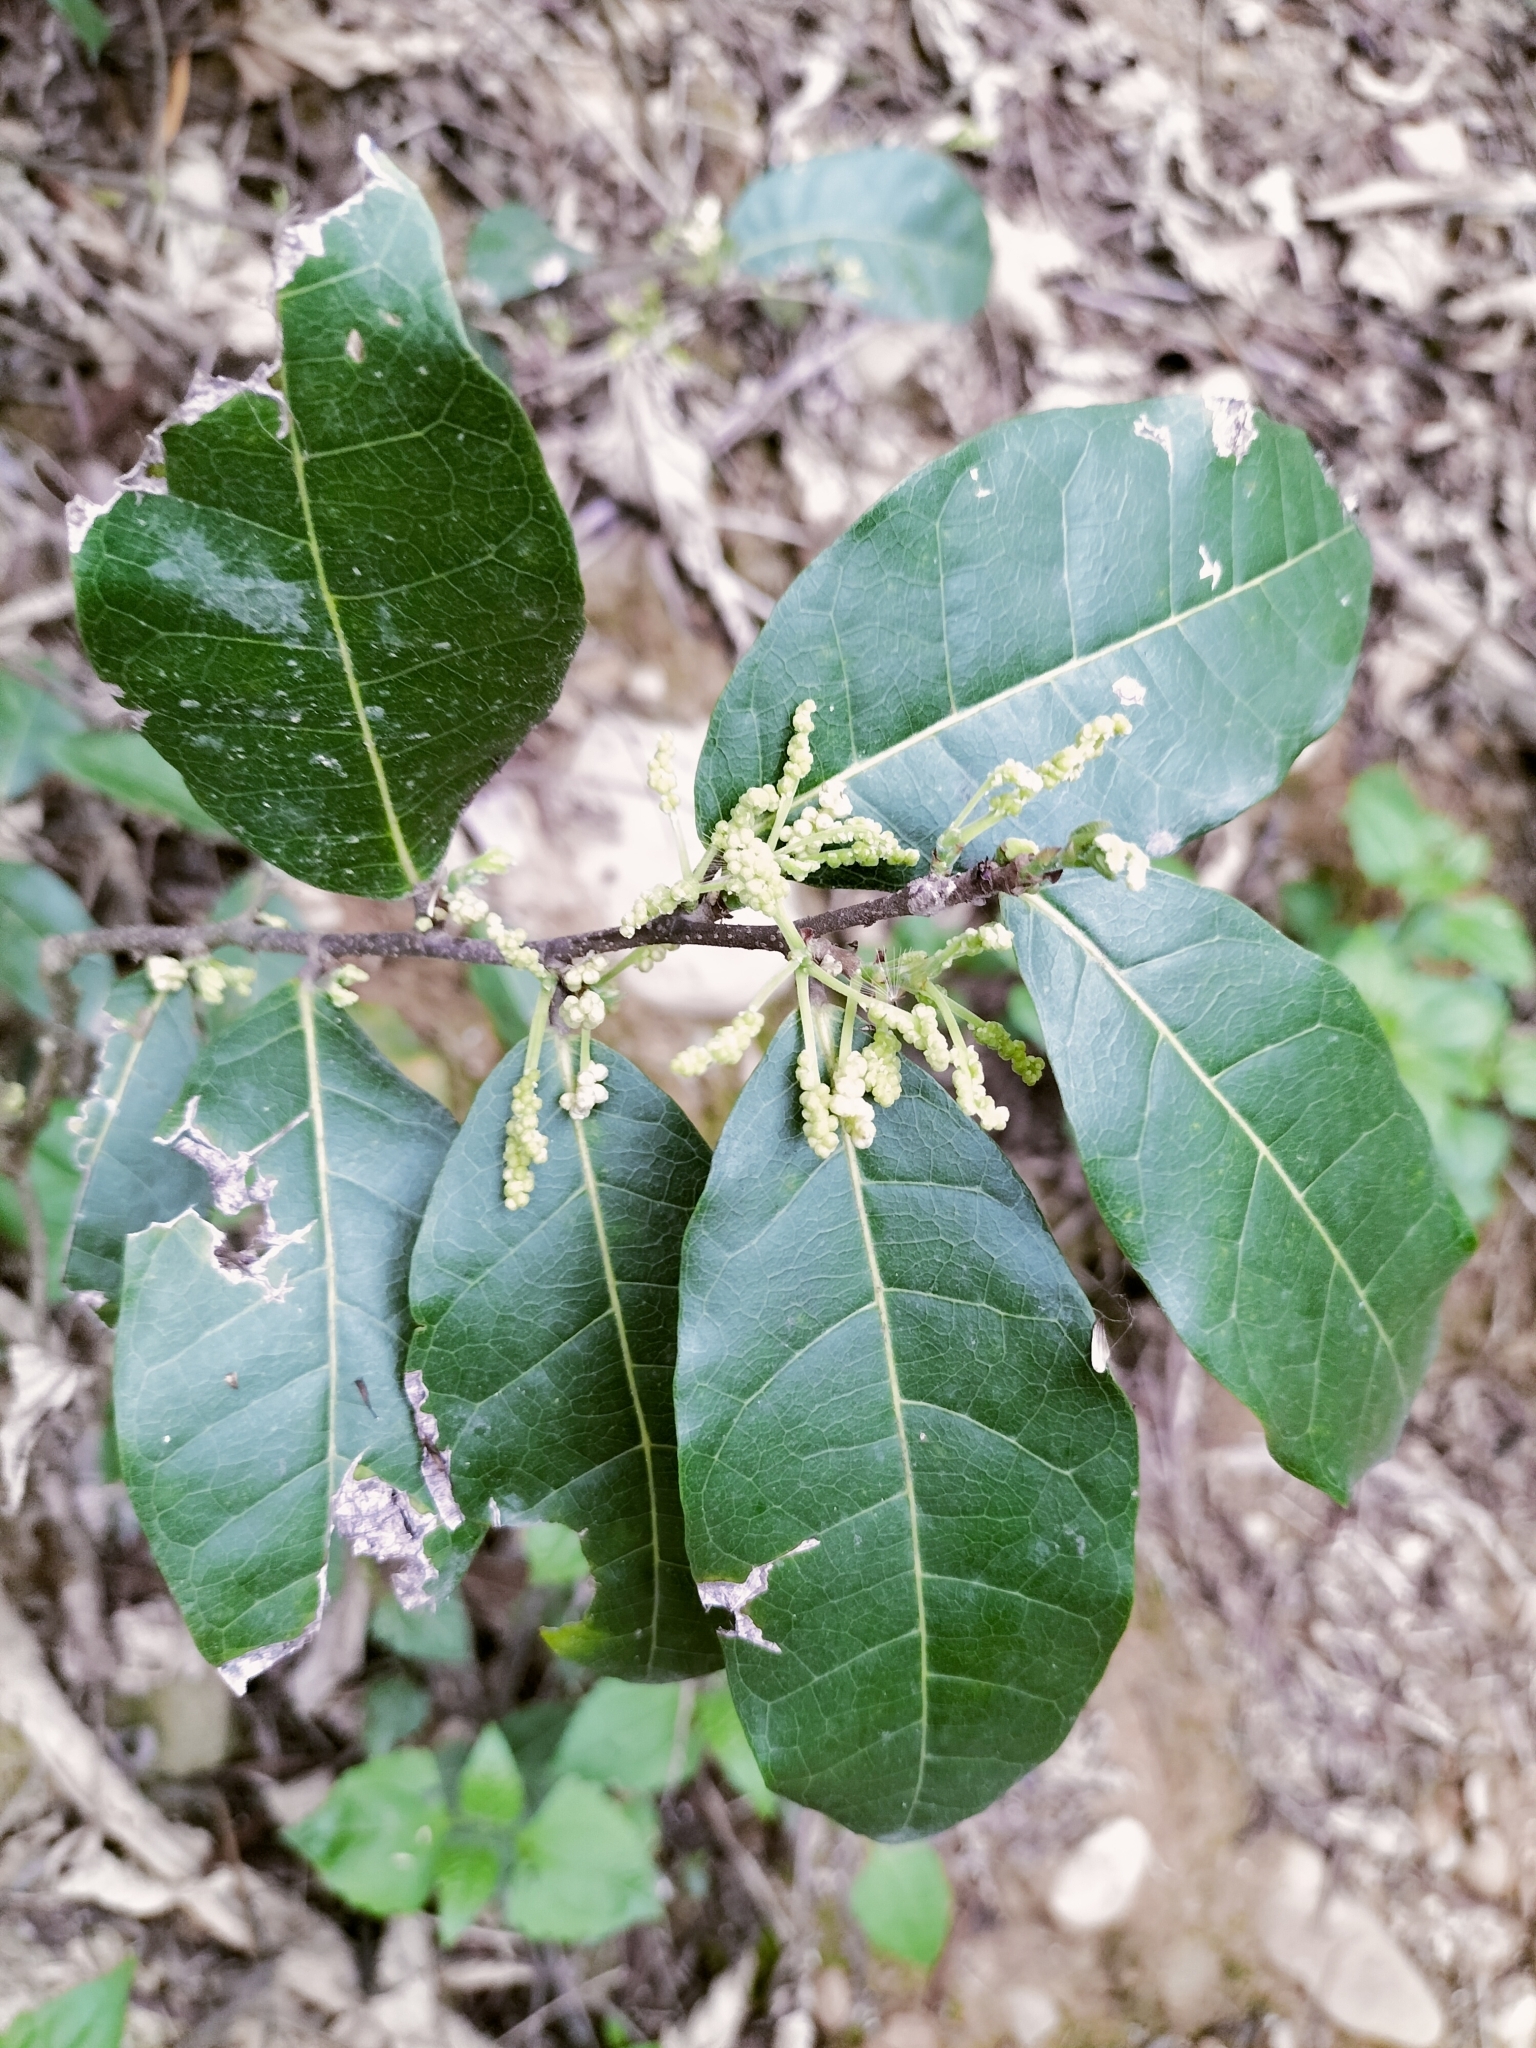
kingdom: Plantae
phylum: Tracheophyta
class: Magnoliopsida
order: Rosales
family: Moraceae
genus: Malaisia
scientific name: Malaisia scandens
